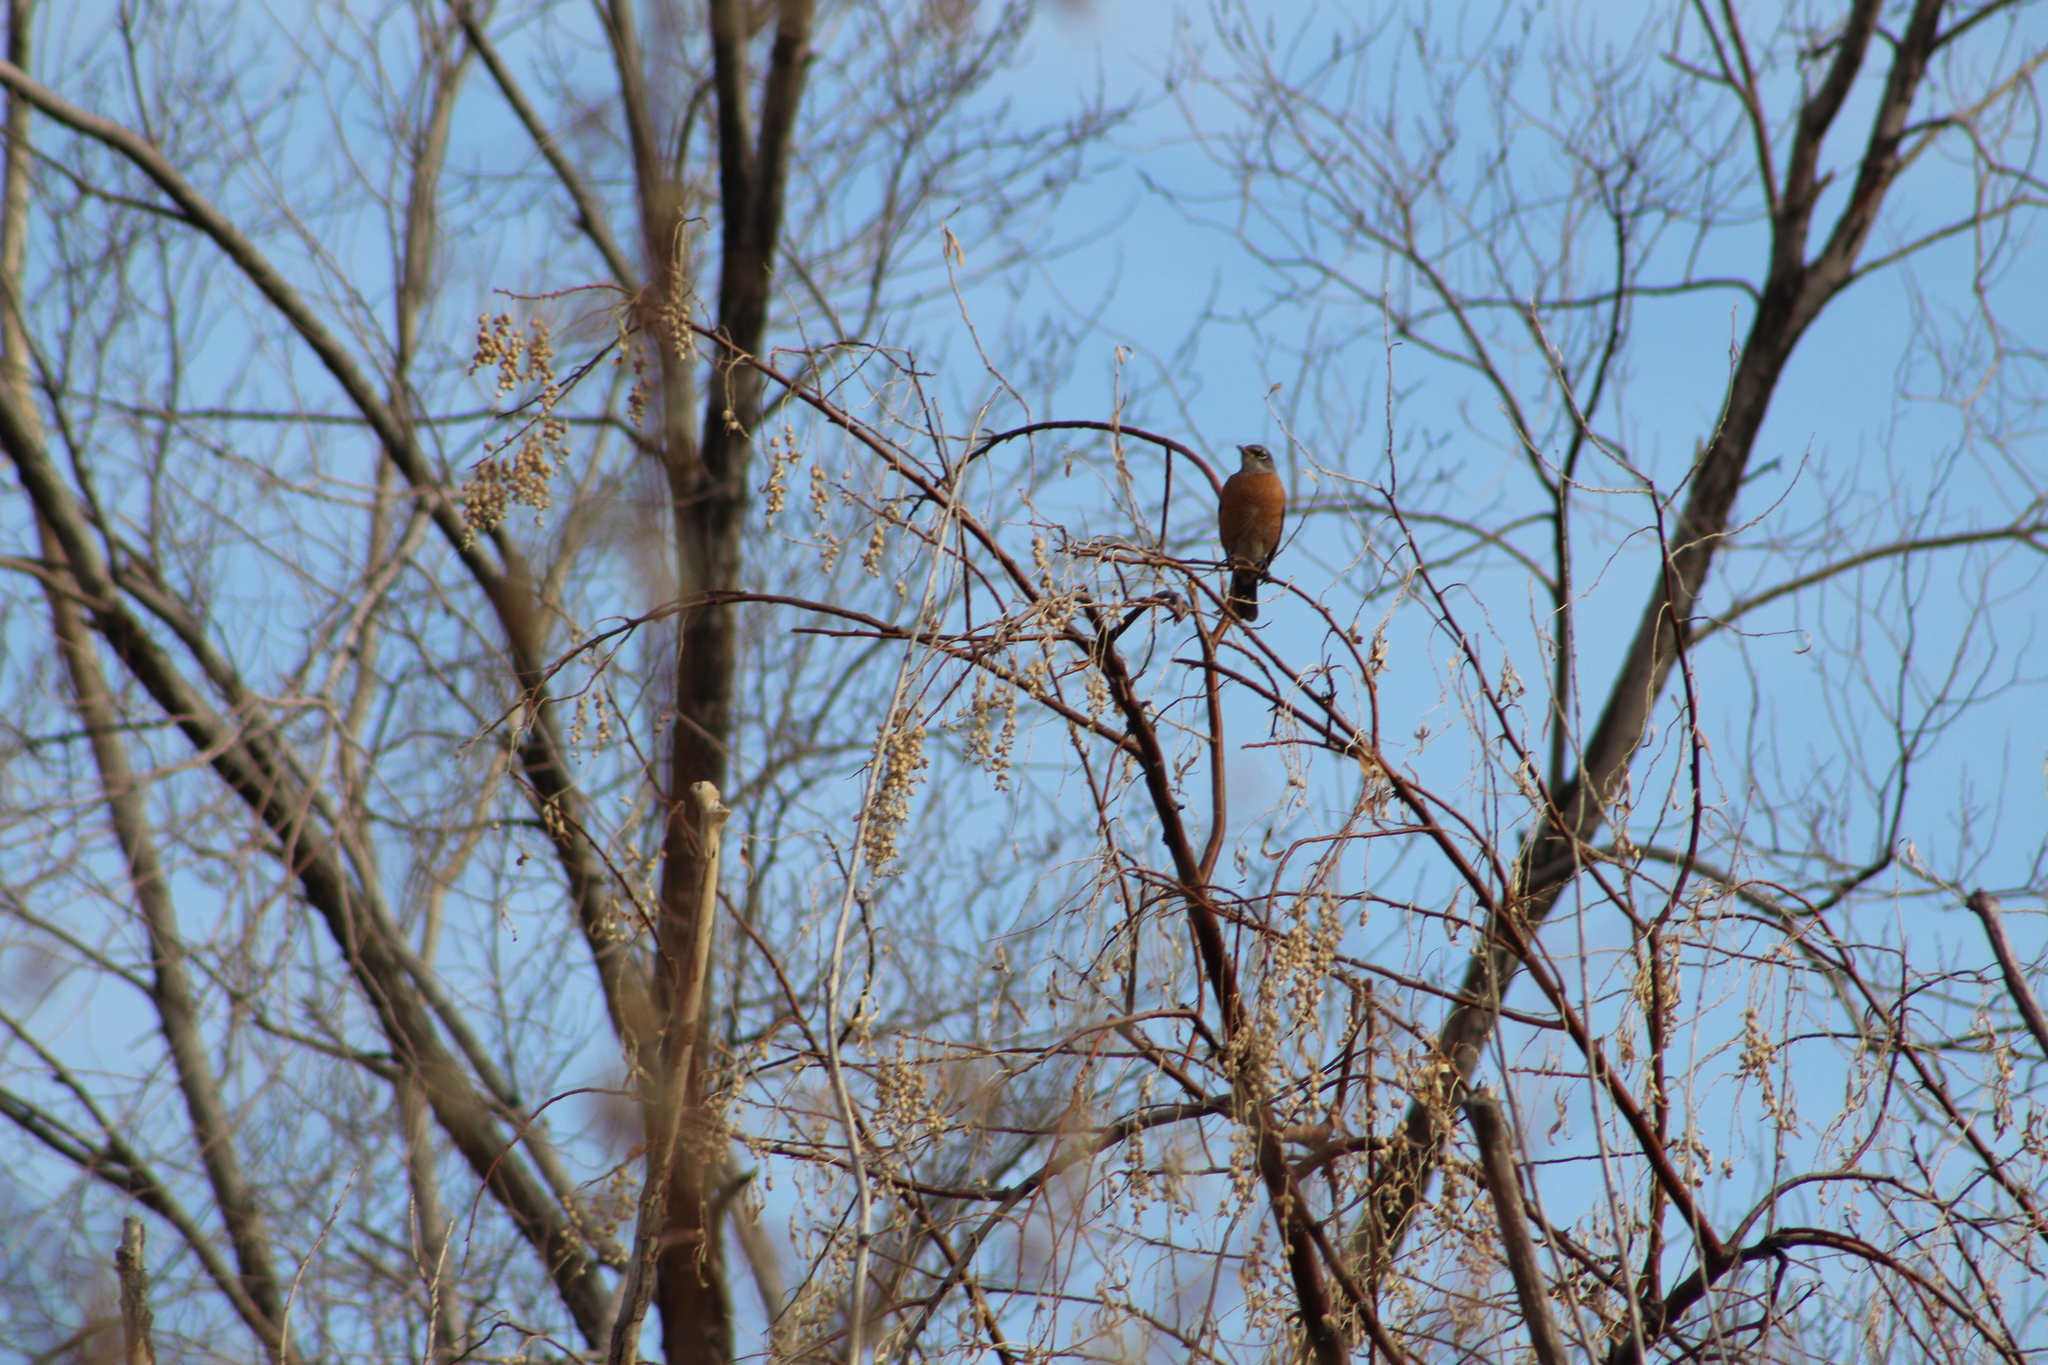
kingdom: Animalia
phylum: Chordata
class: Aves
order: Passeriformes
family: Turdidae
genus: Turdus
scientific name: Turdus migratorius
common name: American robin
